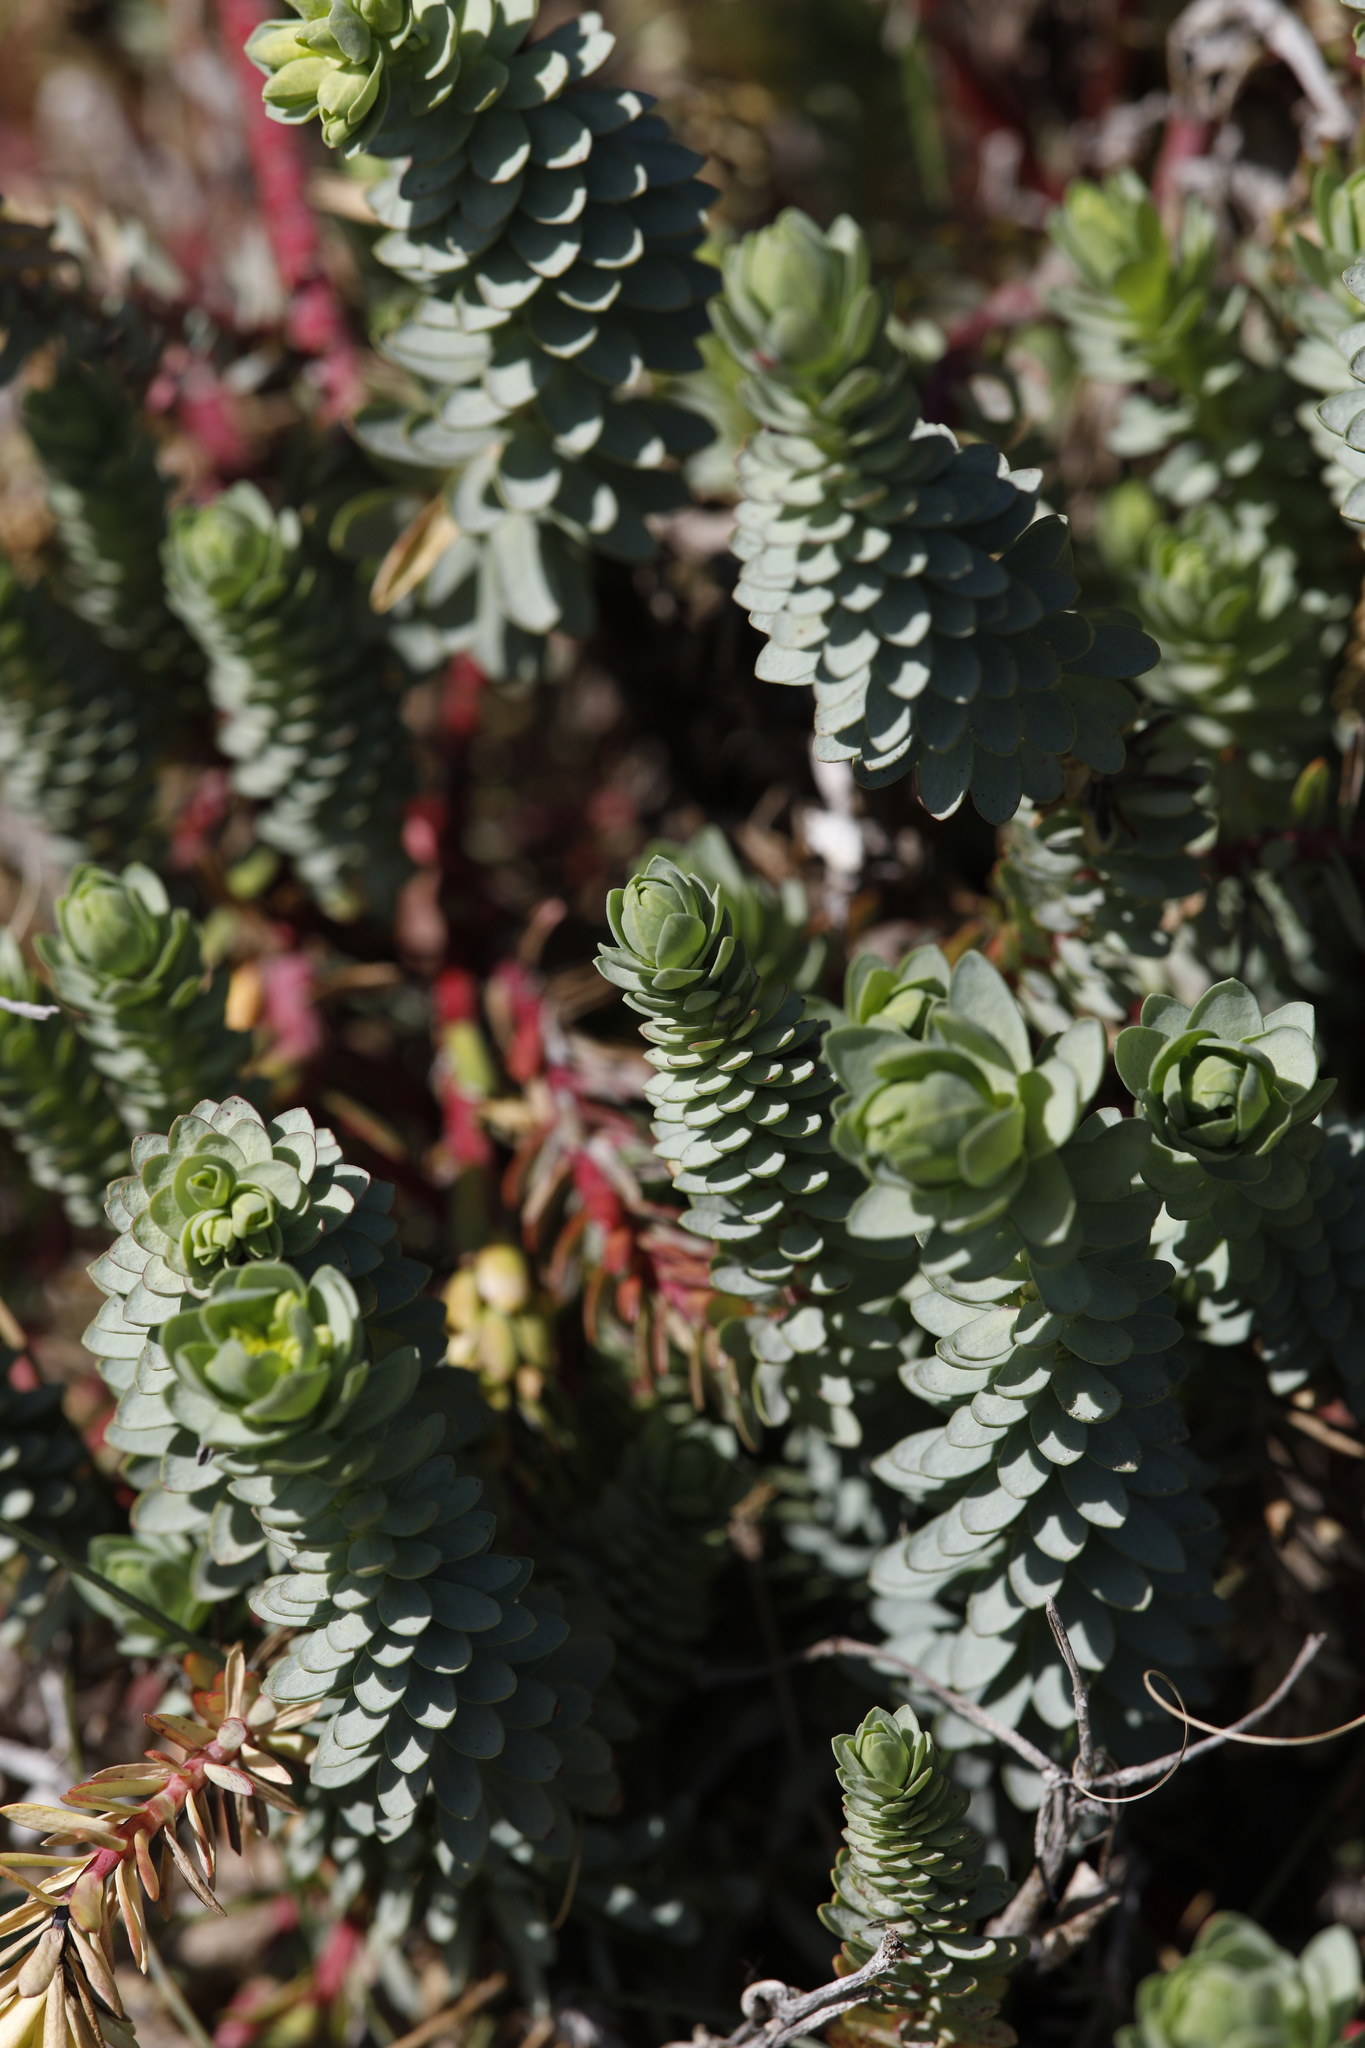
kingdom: Plantae
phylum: Tracheophyta
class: Magnoliopsida
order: Malpighiales
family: Euphorbiaceae
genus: Euphorbia
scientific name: Euphorbia paralias
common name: Sea spurge
